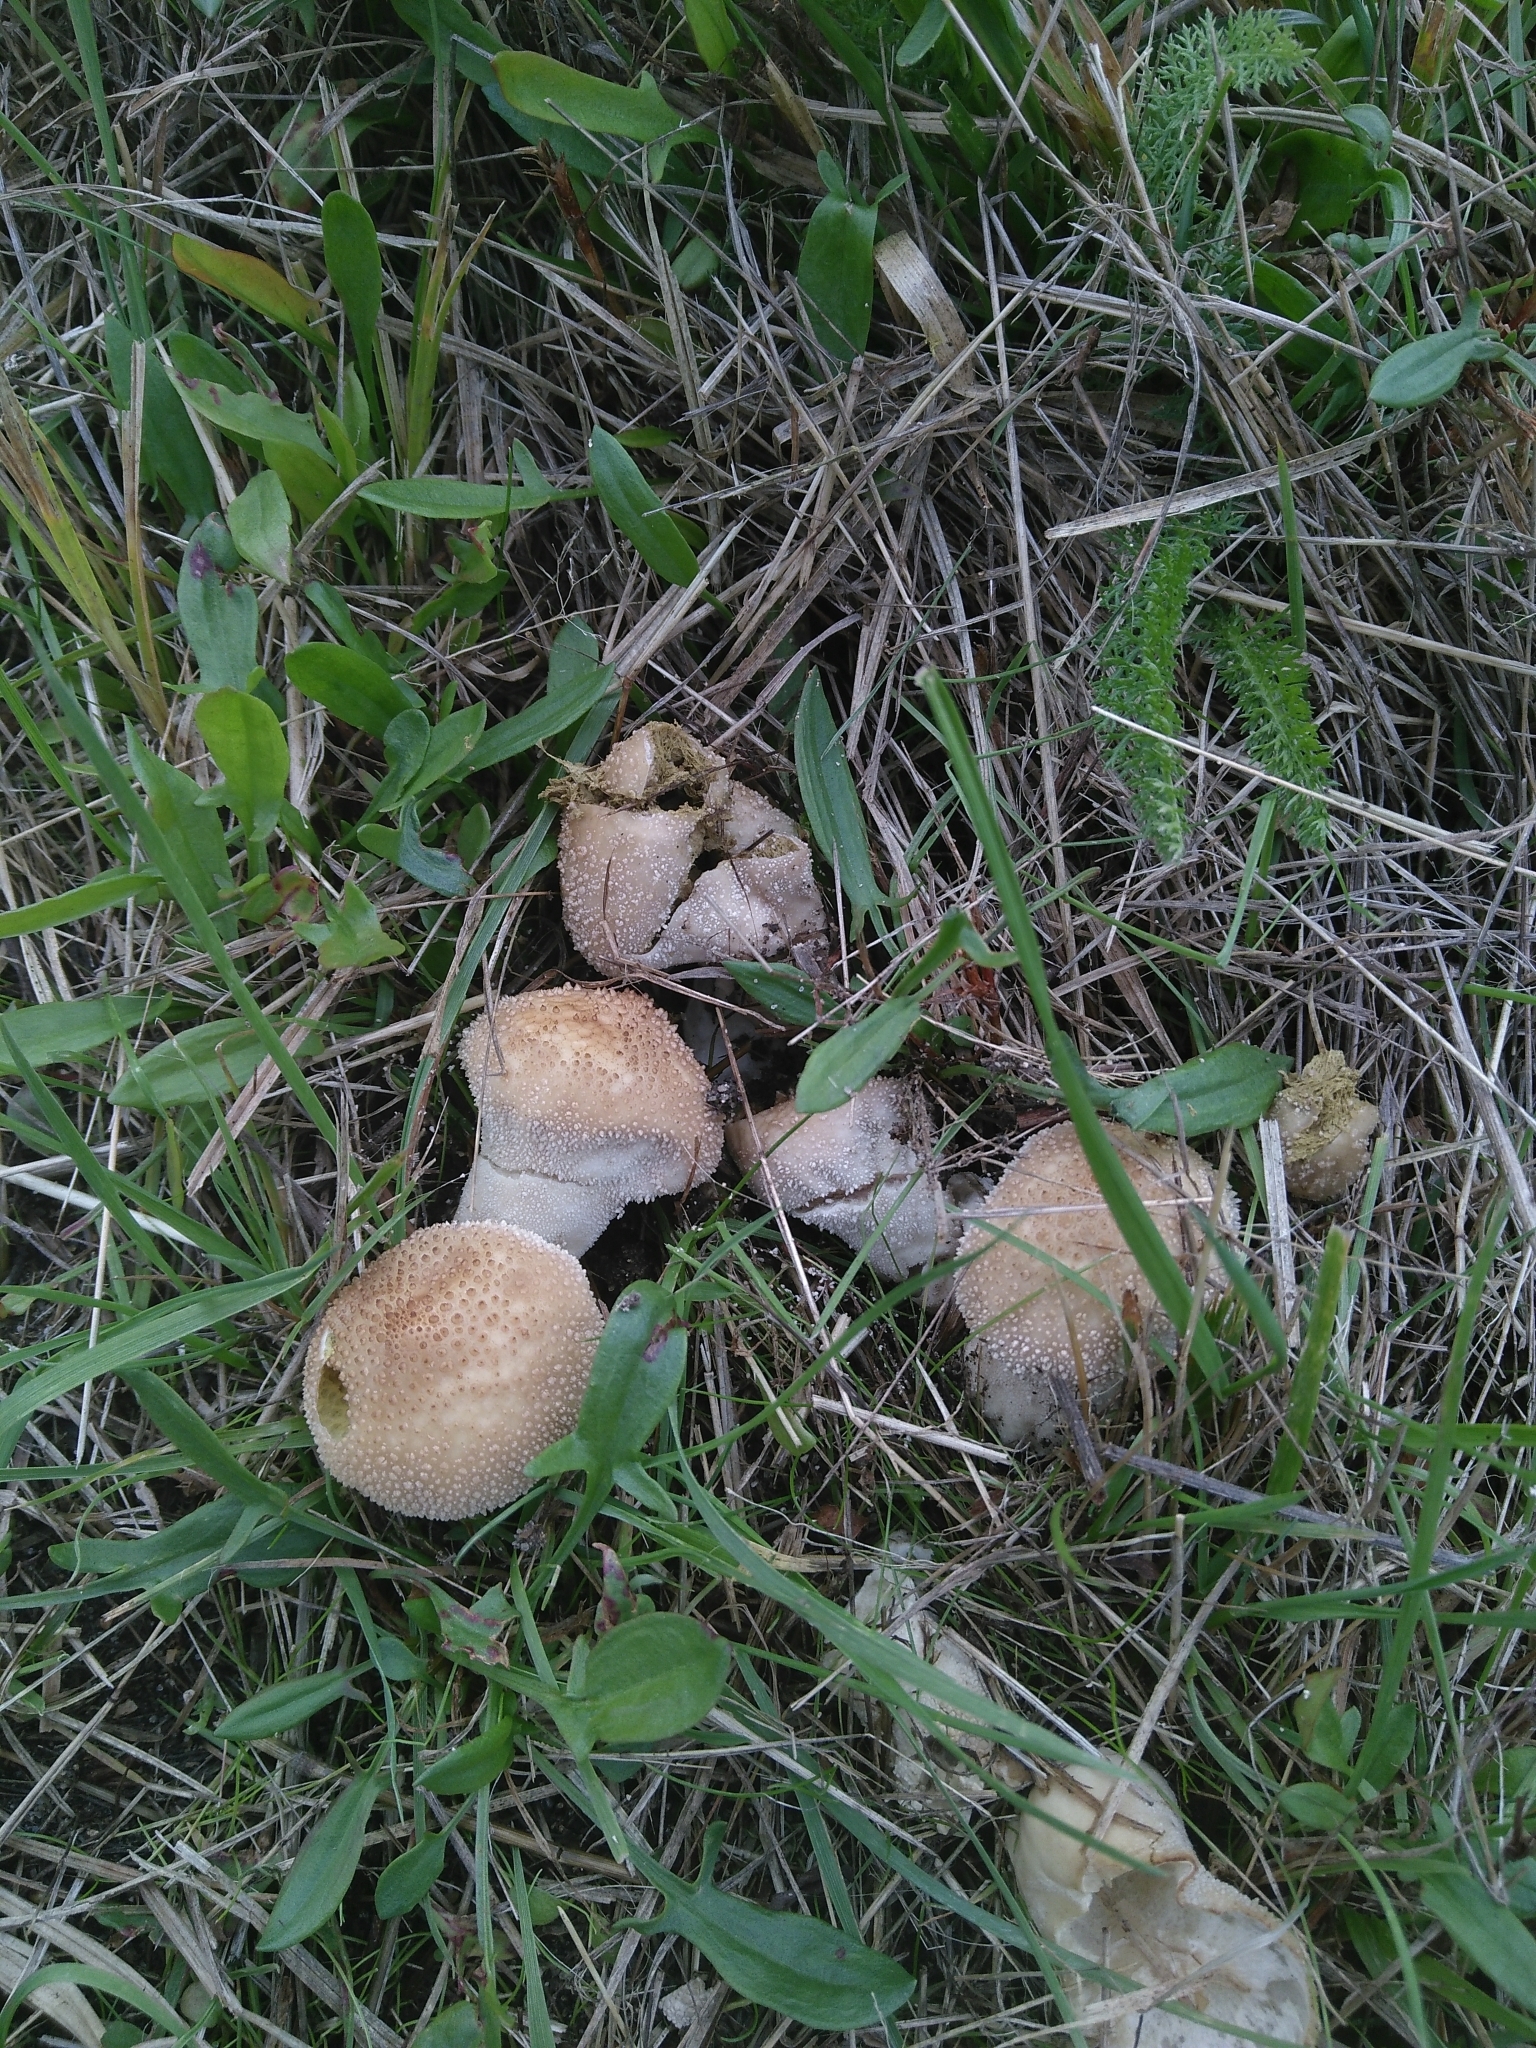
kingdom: Fungi
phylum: Basidiomycota
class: Agaricomycetes
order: Agaricales
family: Lycoperdaceae
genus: Lycoperdon
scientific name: Lycoperdon perlatum
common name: Common puffball
